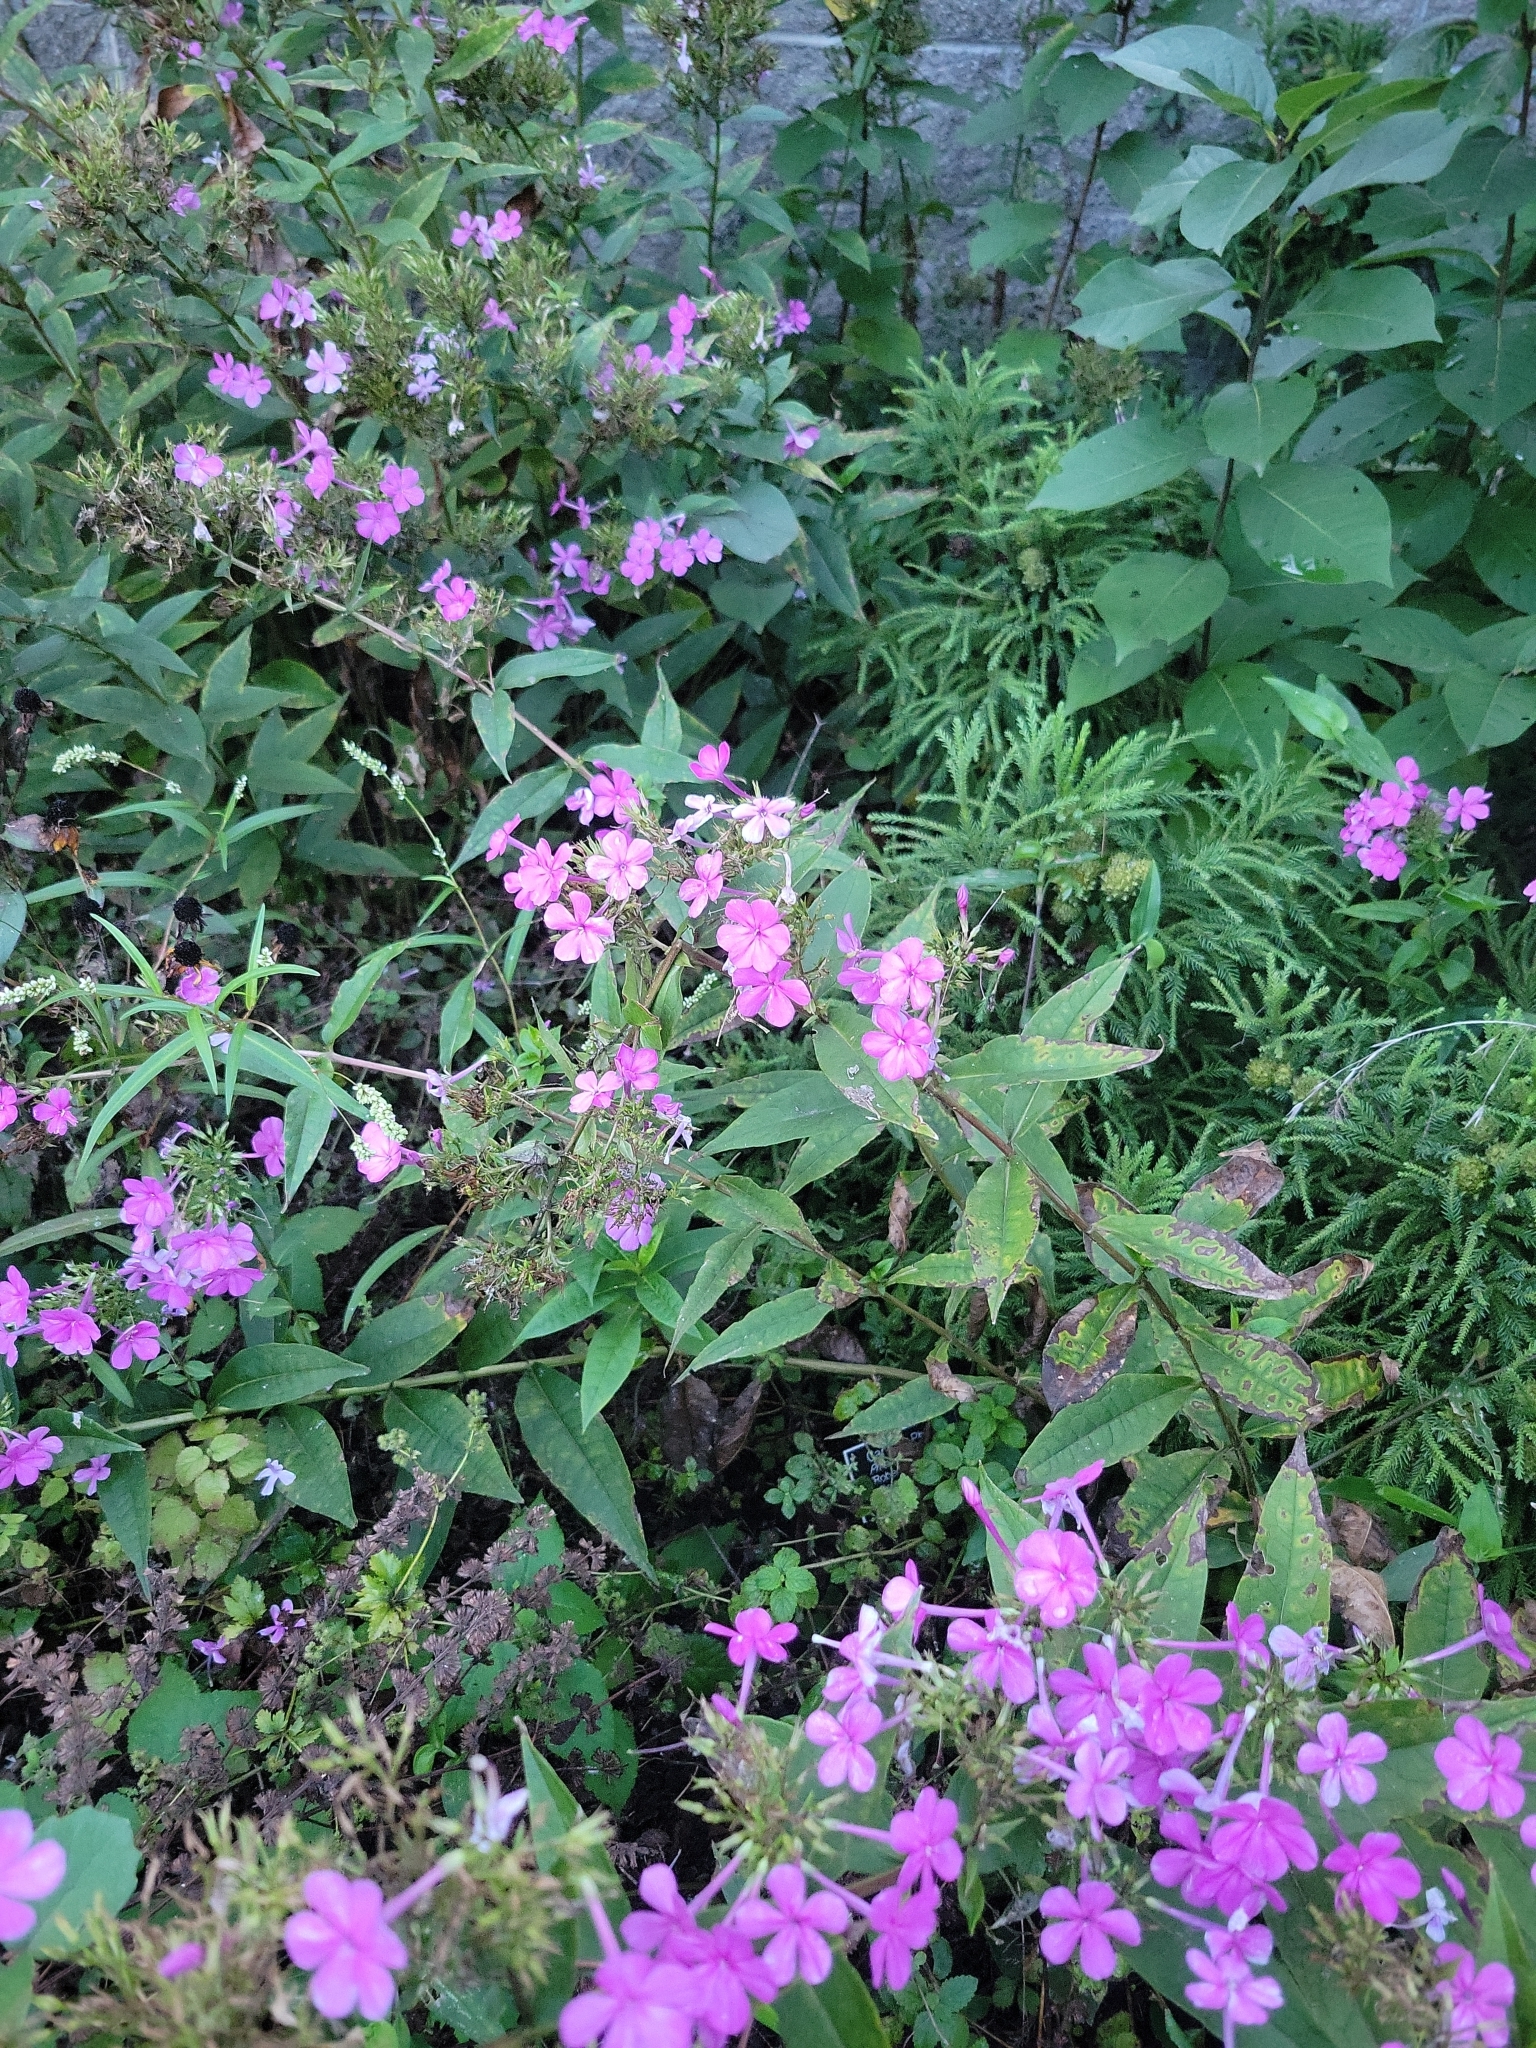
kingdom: Plantae
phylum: Tracheophyta
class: Magnoliopsida
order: Ericales
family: Polemoniaceae
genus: Phlox
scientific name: Phlox paniculata
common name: Fall phlox
